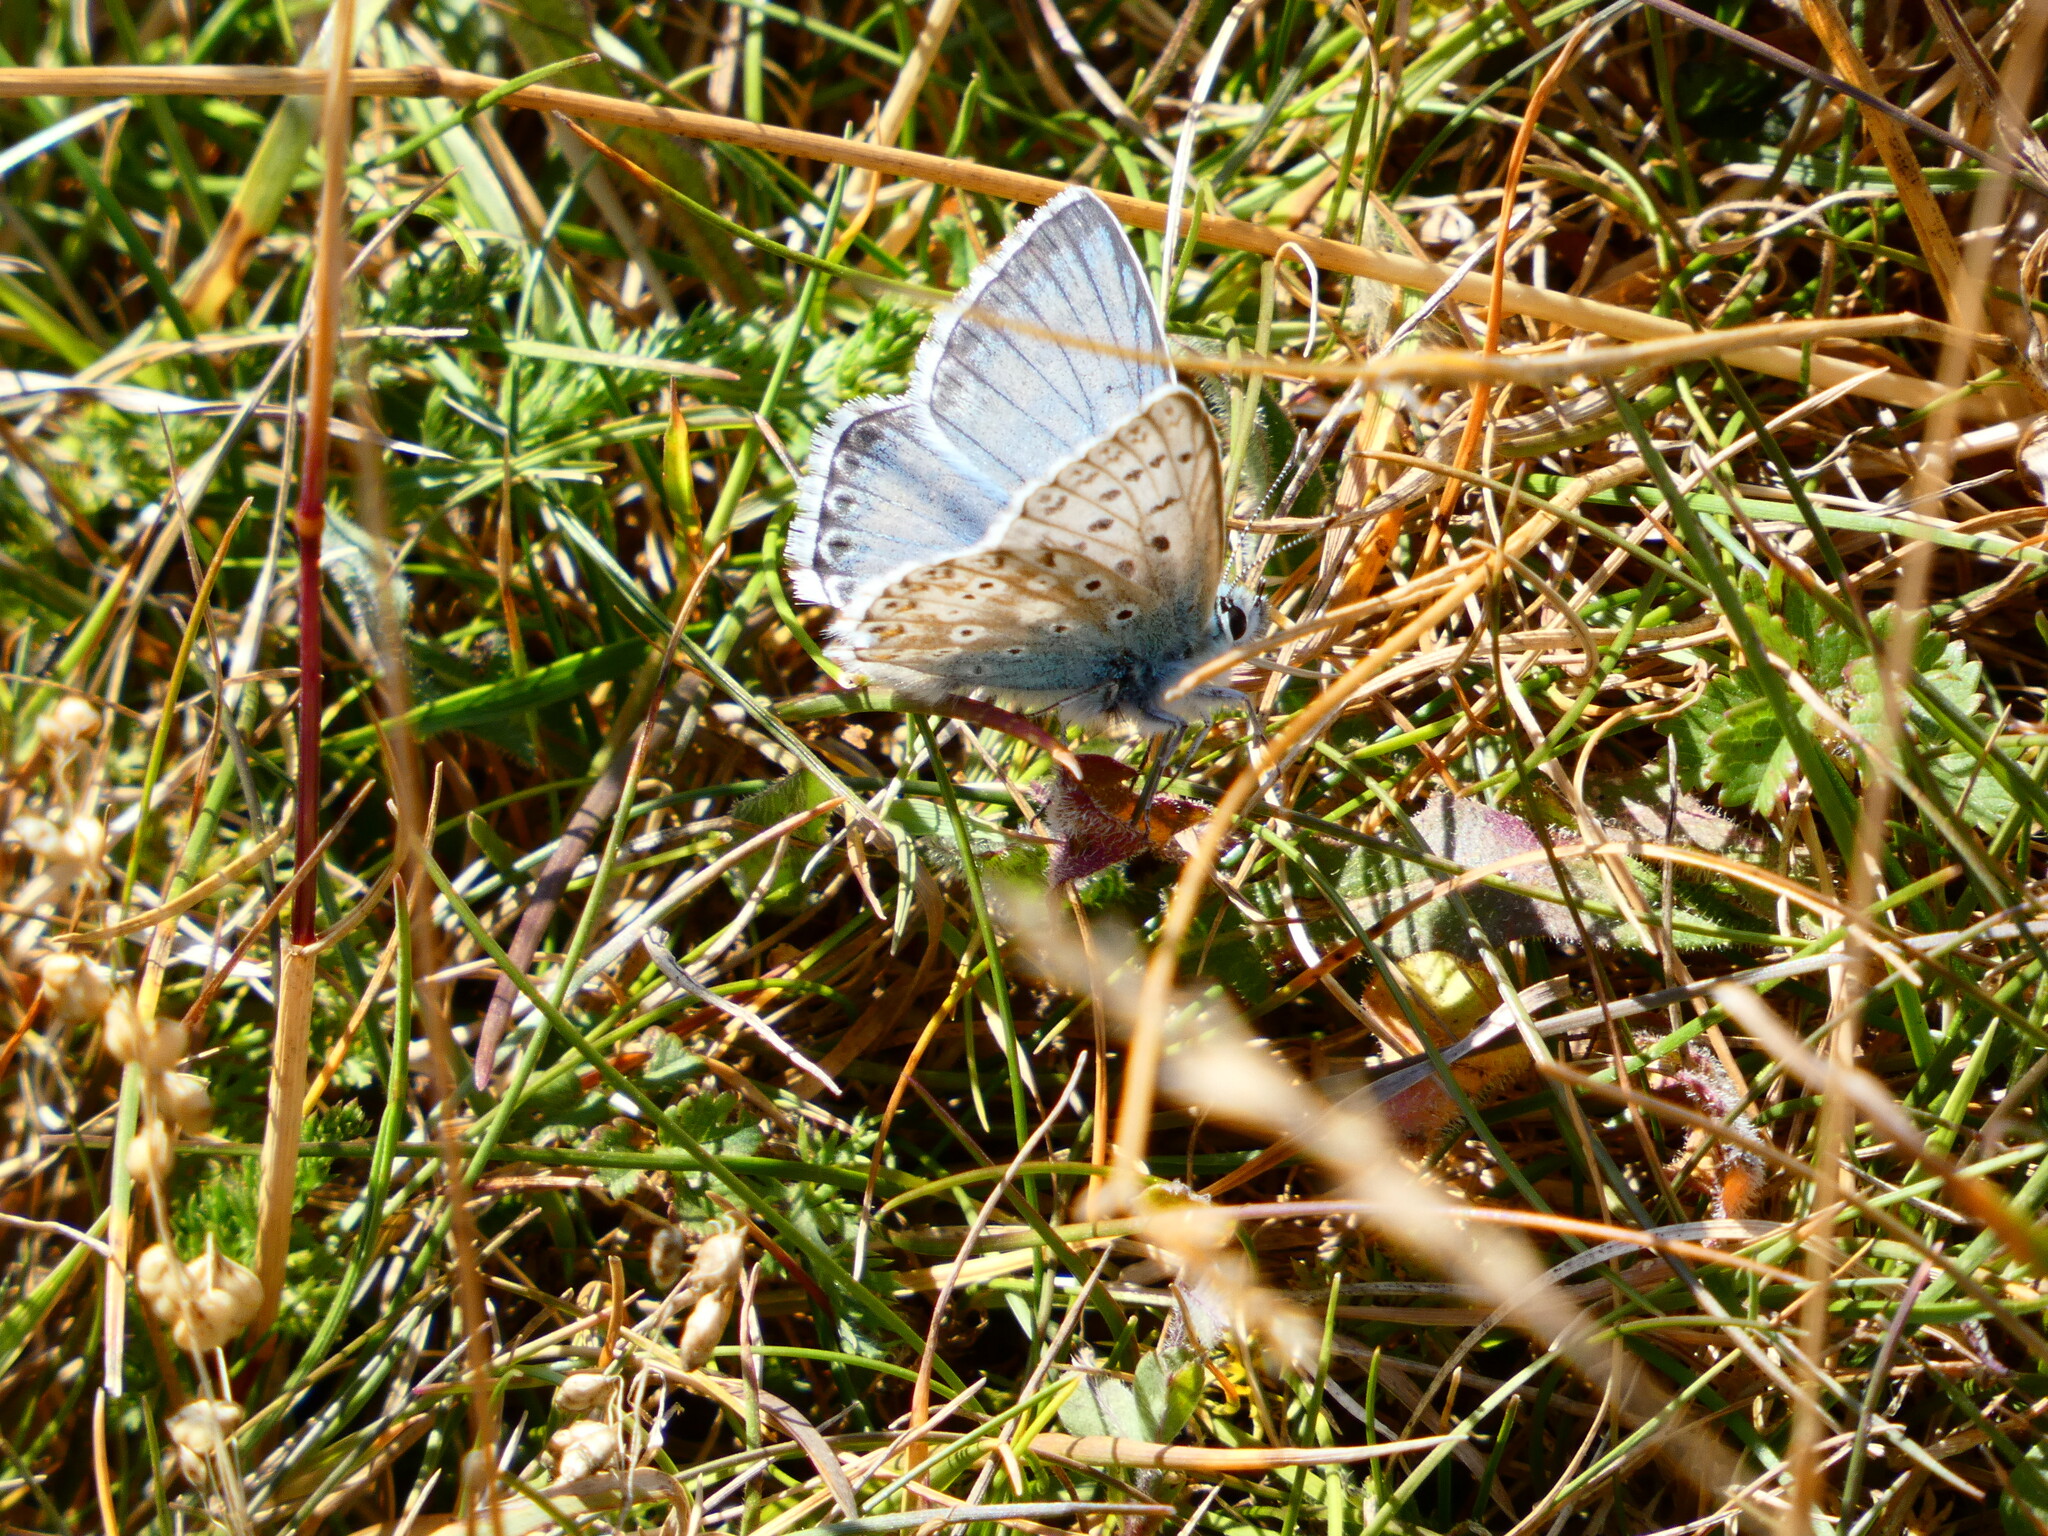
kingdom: Animalia
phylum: Arthropoda
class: Insecta
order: Lepidoptera
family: Lycaenidae
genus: Lysandra
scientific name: Lysandra coridon
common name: Chalkhill blue
